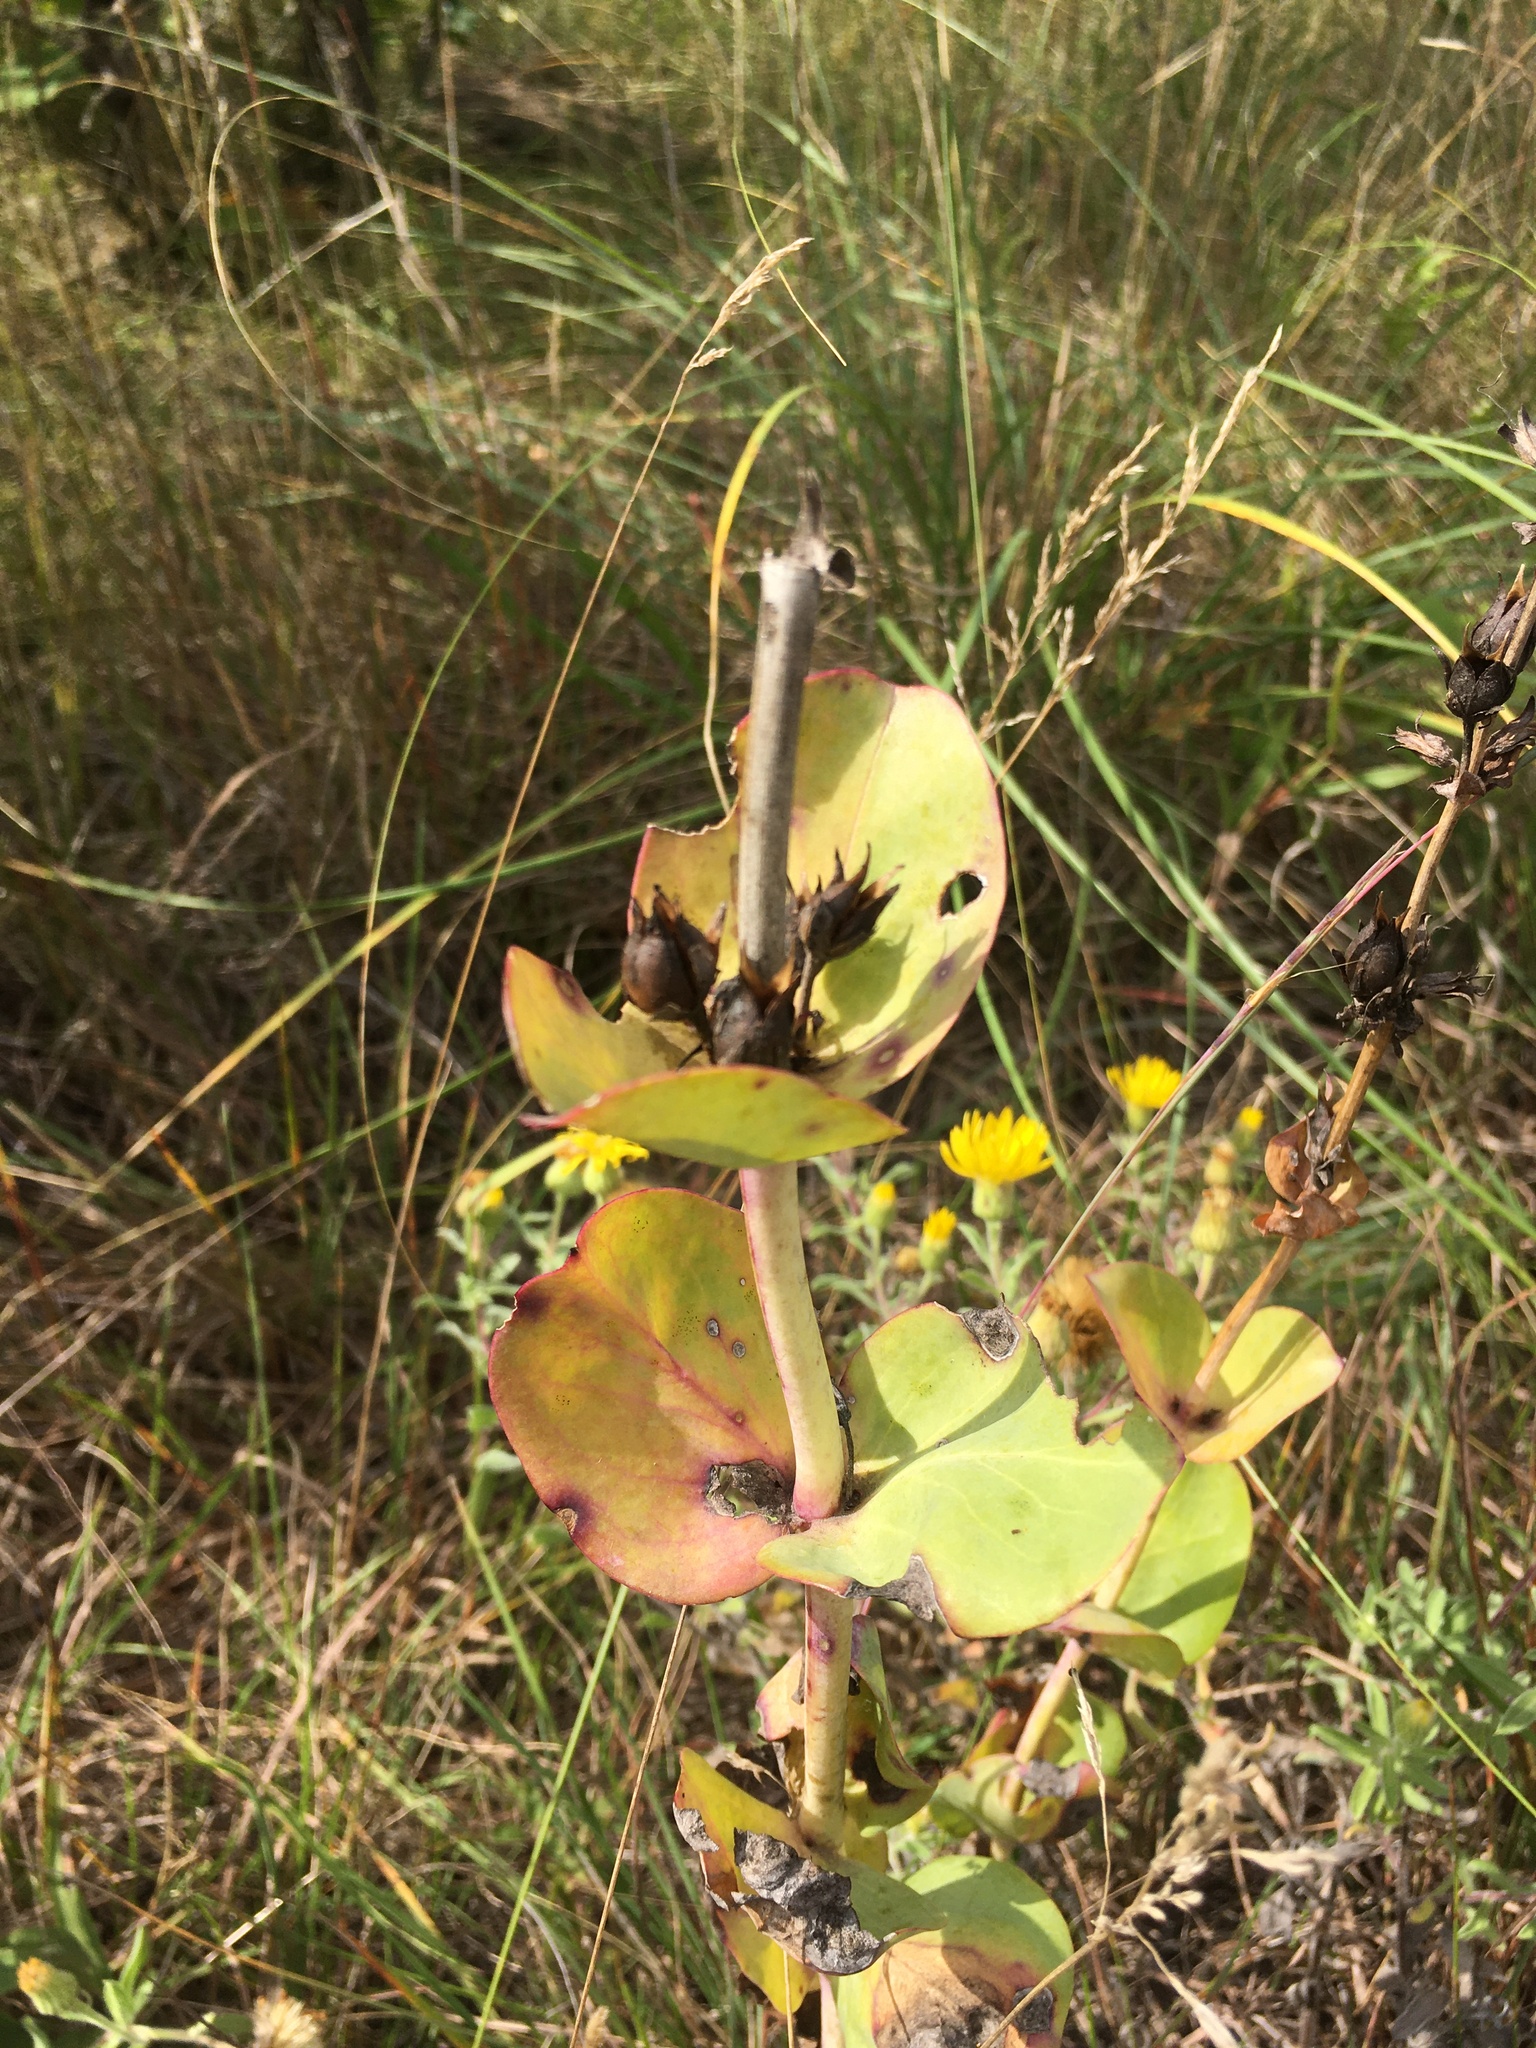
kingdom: Plantae
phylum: Tracheophyta
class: Magnoliopsida
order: Lamiales
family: Plantaginaceae
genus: Penstemon
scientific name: Penstemon
